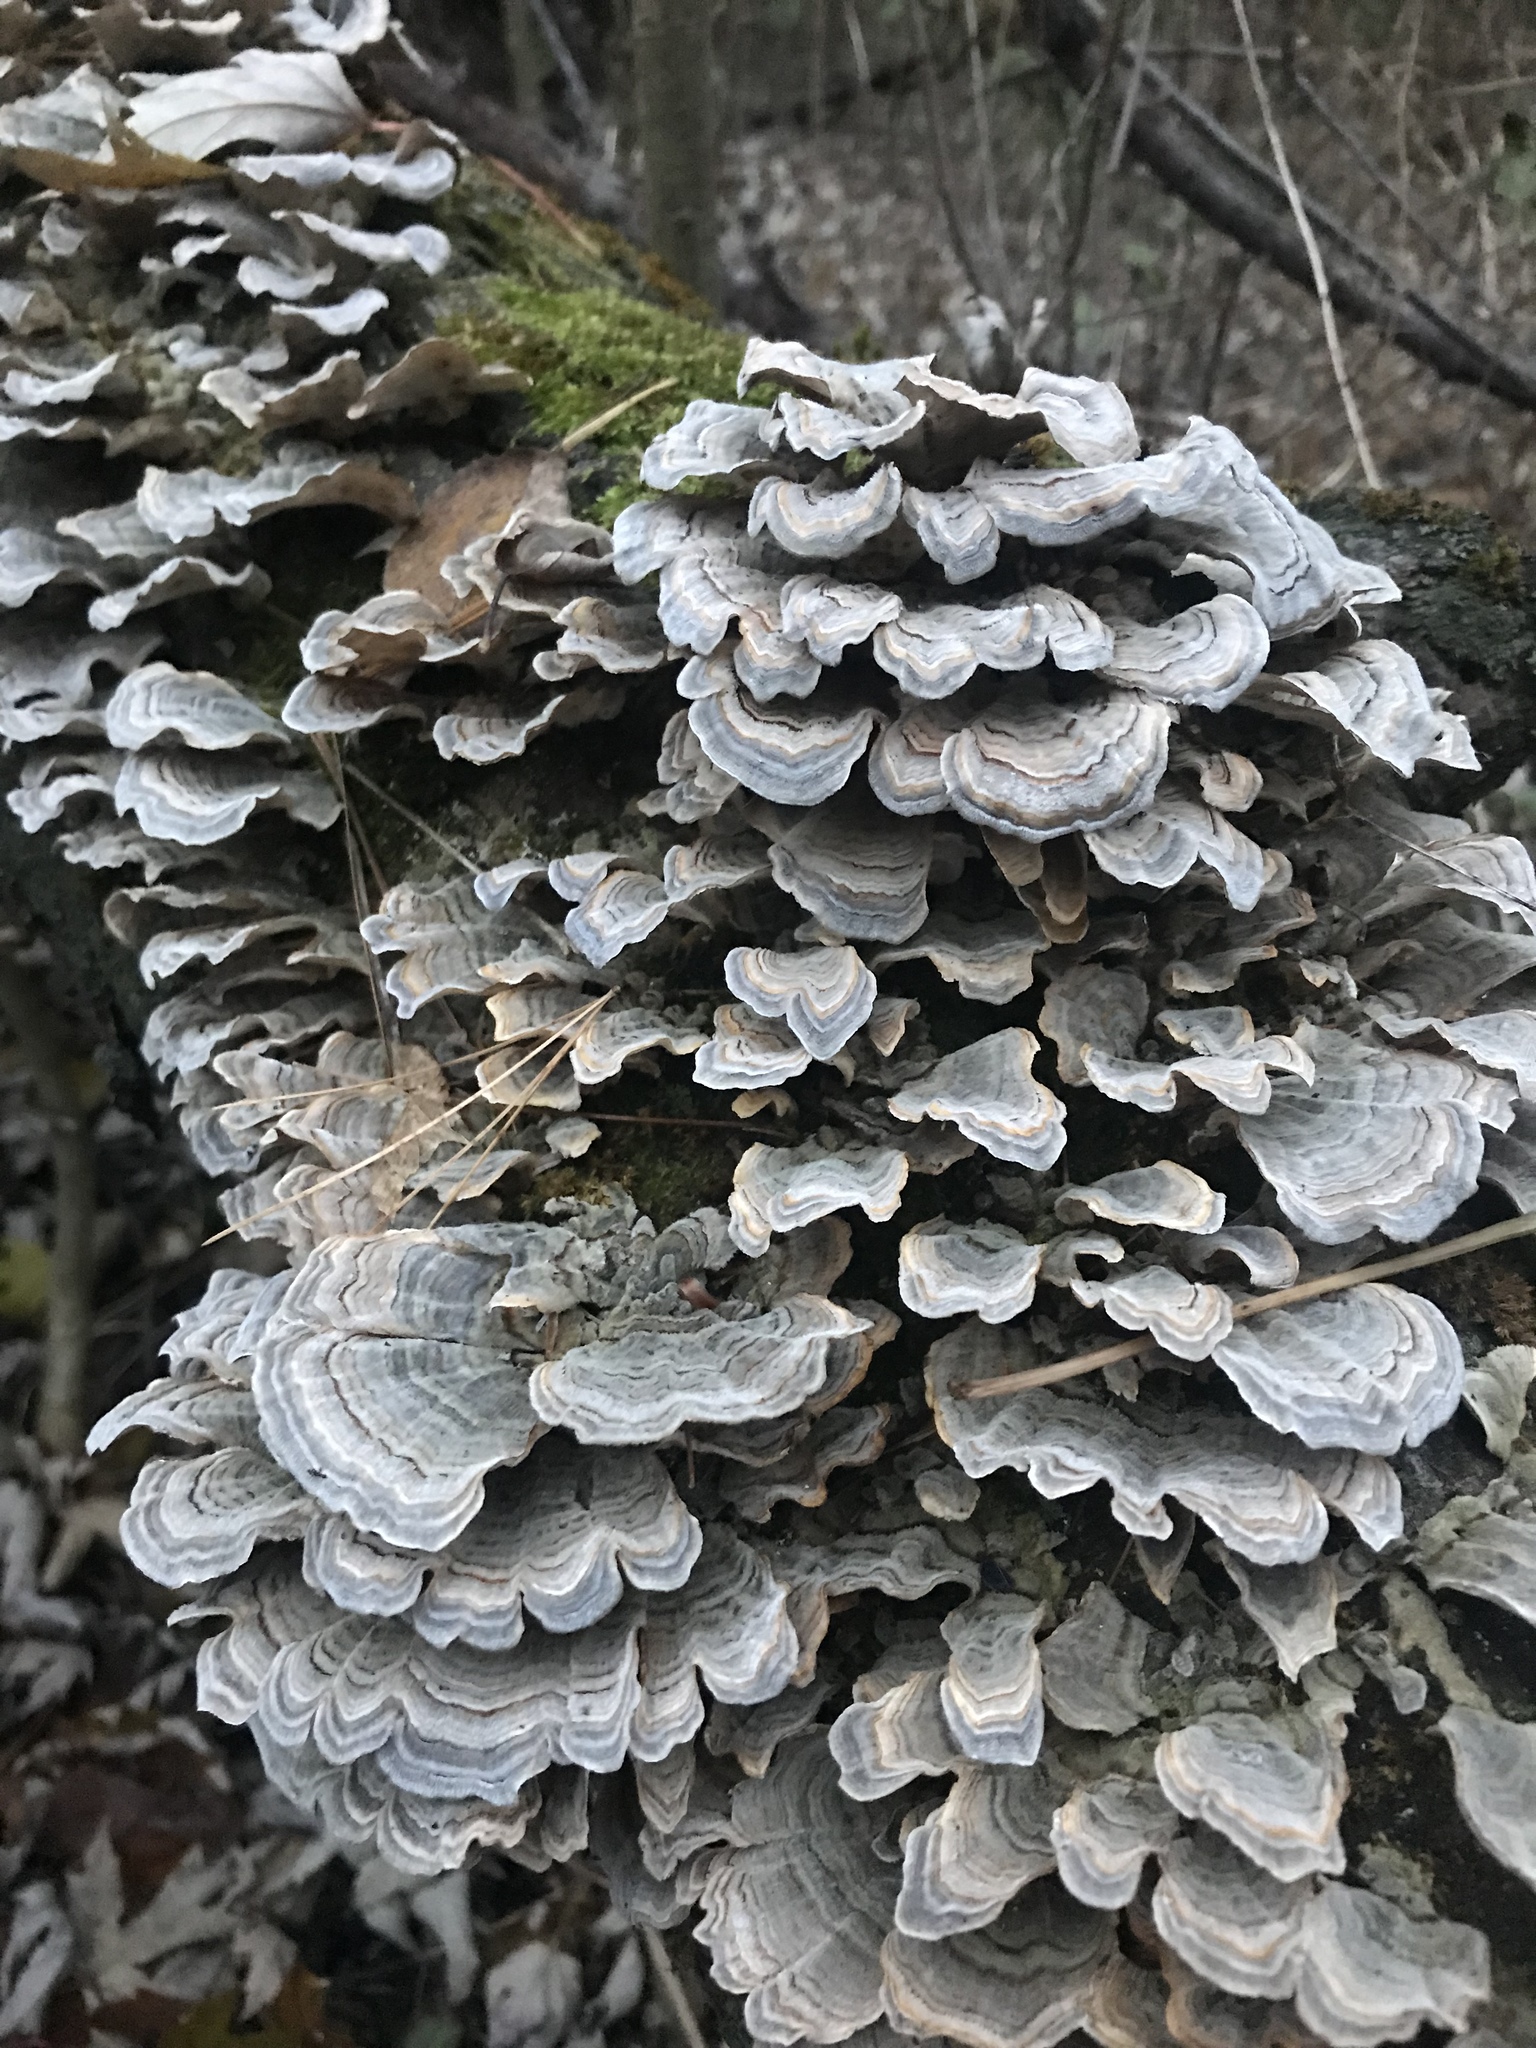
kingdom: Fungi
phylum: Basidiomycota
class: Agaricomycetes
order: Polyporales
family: Polyporaceae
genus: Trametes
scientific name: Trametes versicolor
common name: Turkeytail
